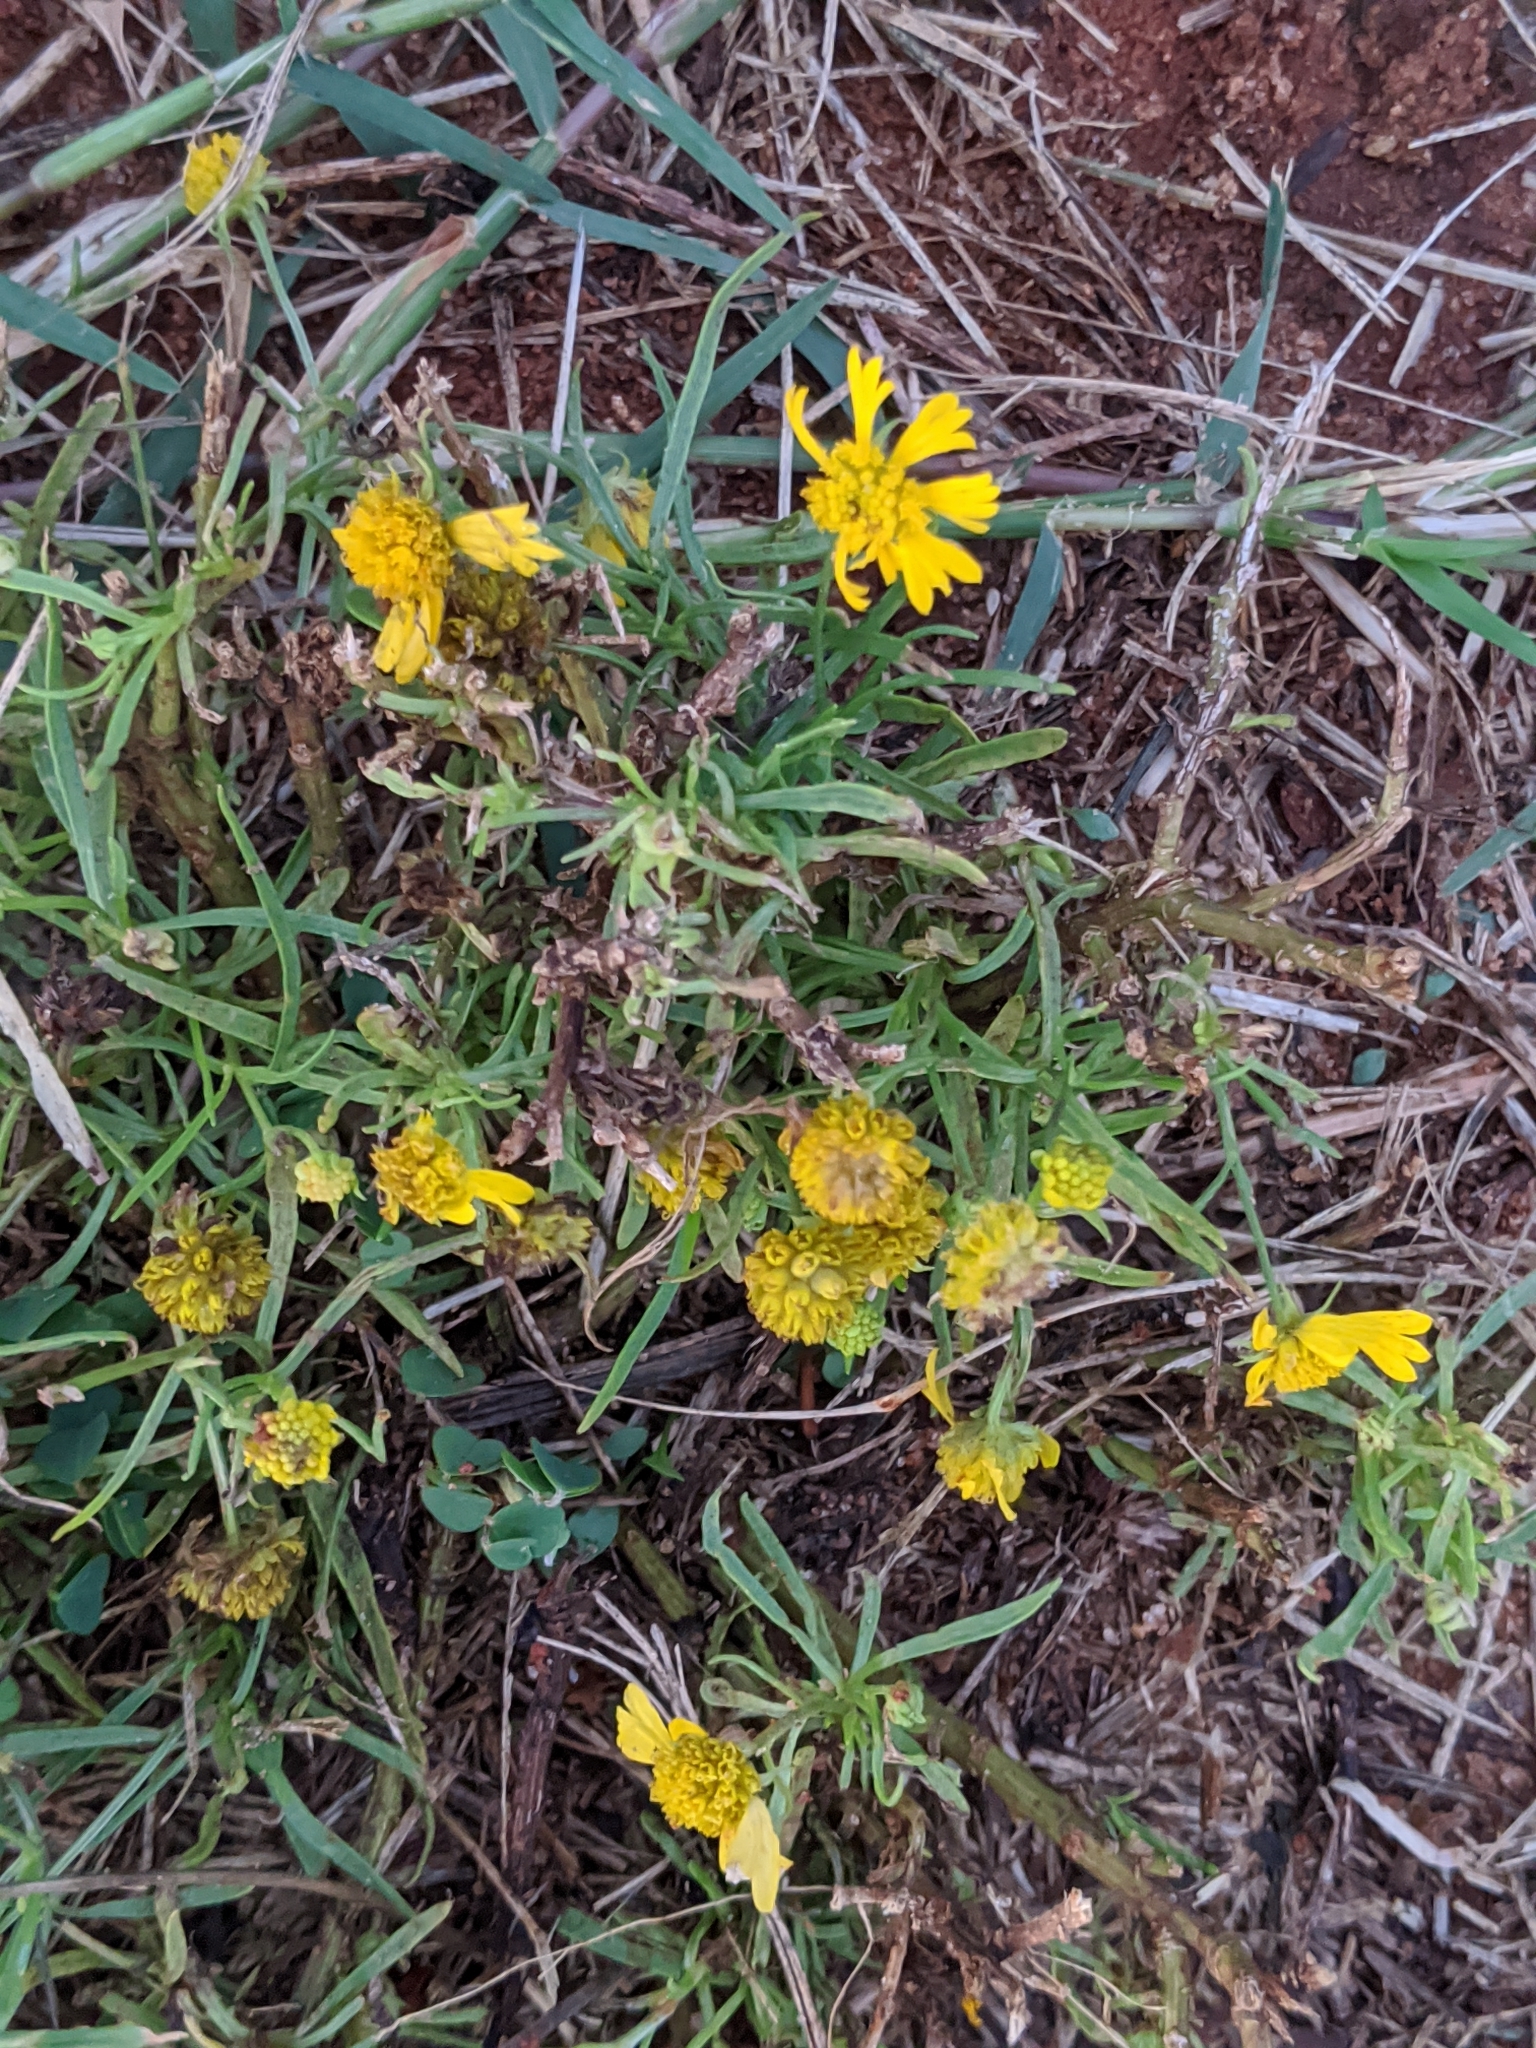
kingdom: Plantae
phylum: Tracheophyta
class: Magnoliopsida
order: Asterales
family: Asteraceae
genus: Helenium
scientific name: Helenium amarum
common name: Bitter sneezeweed
